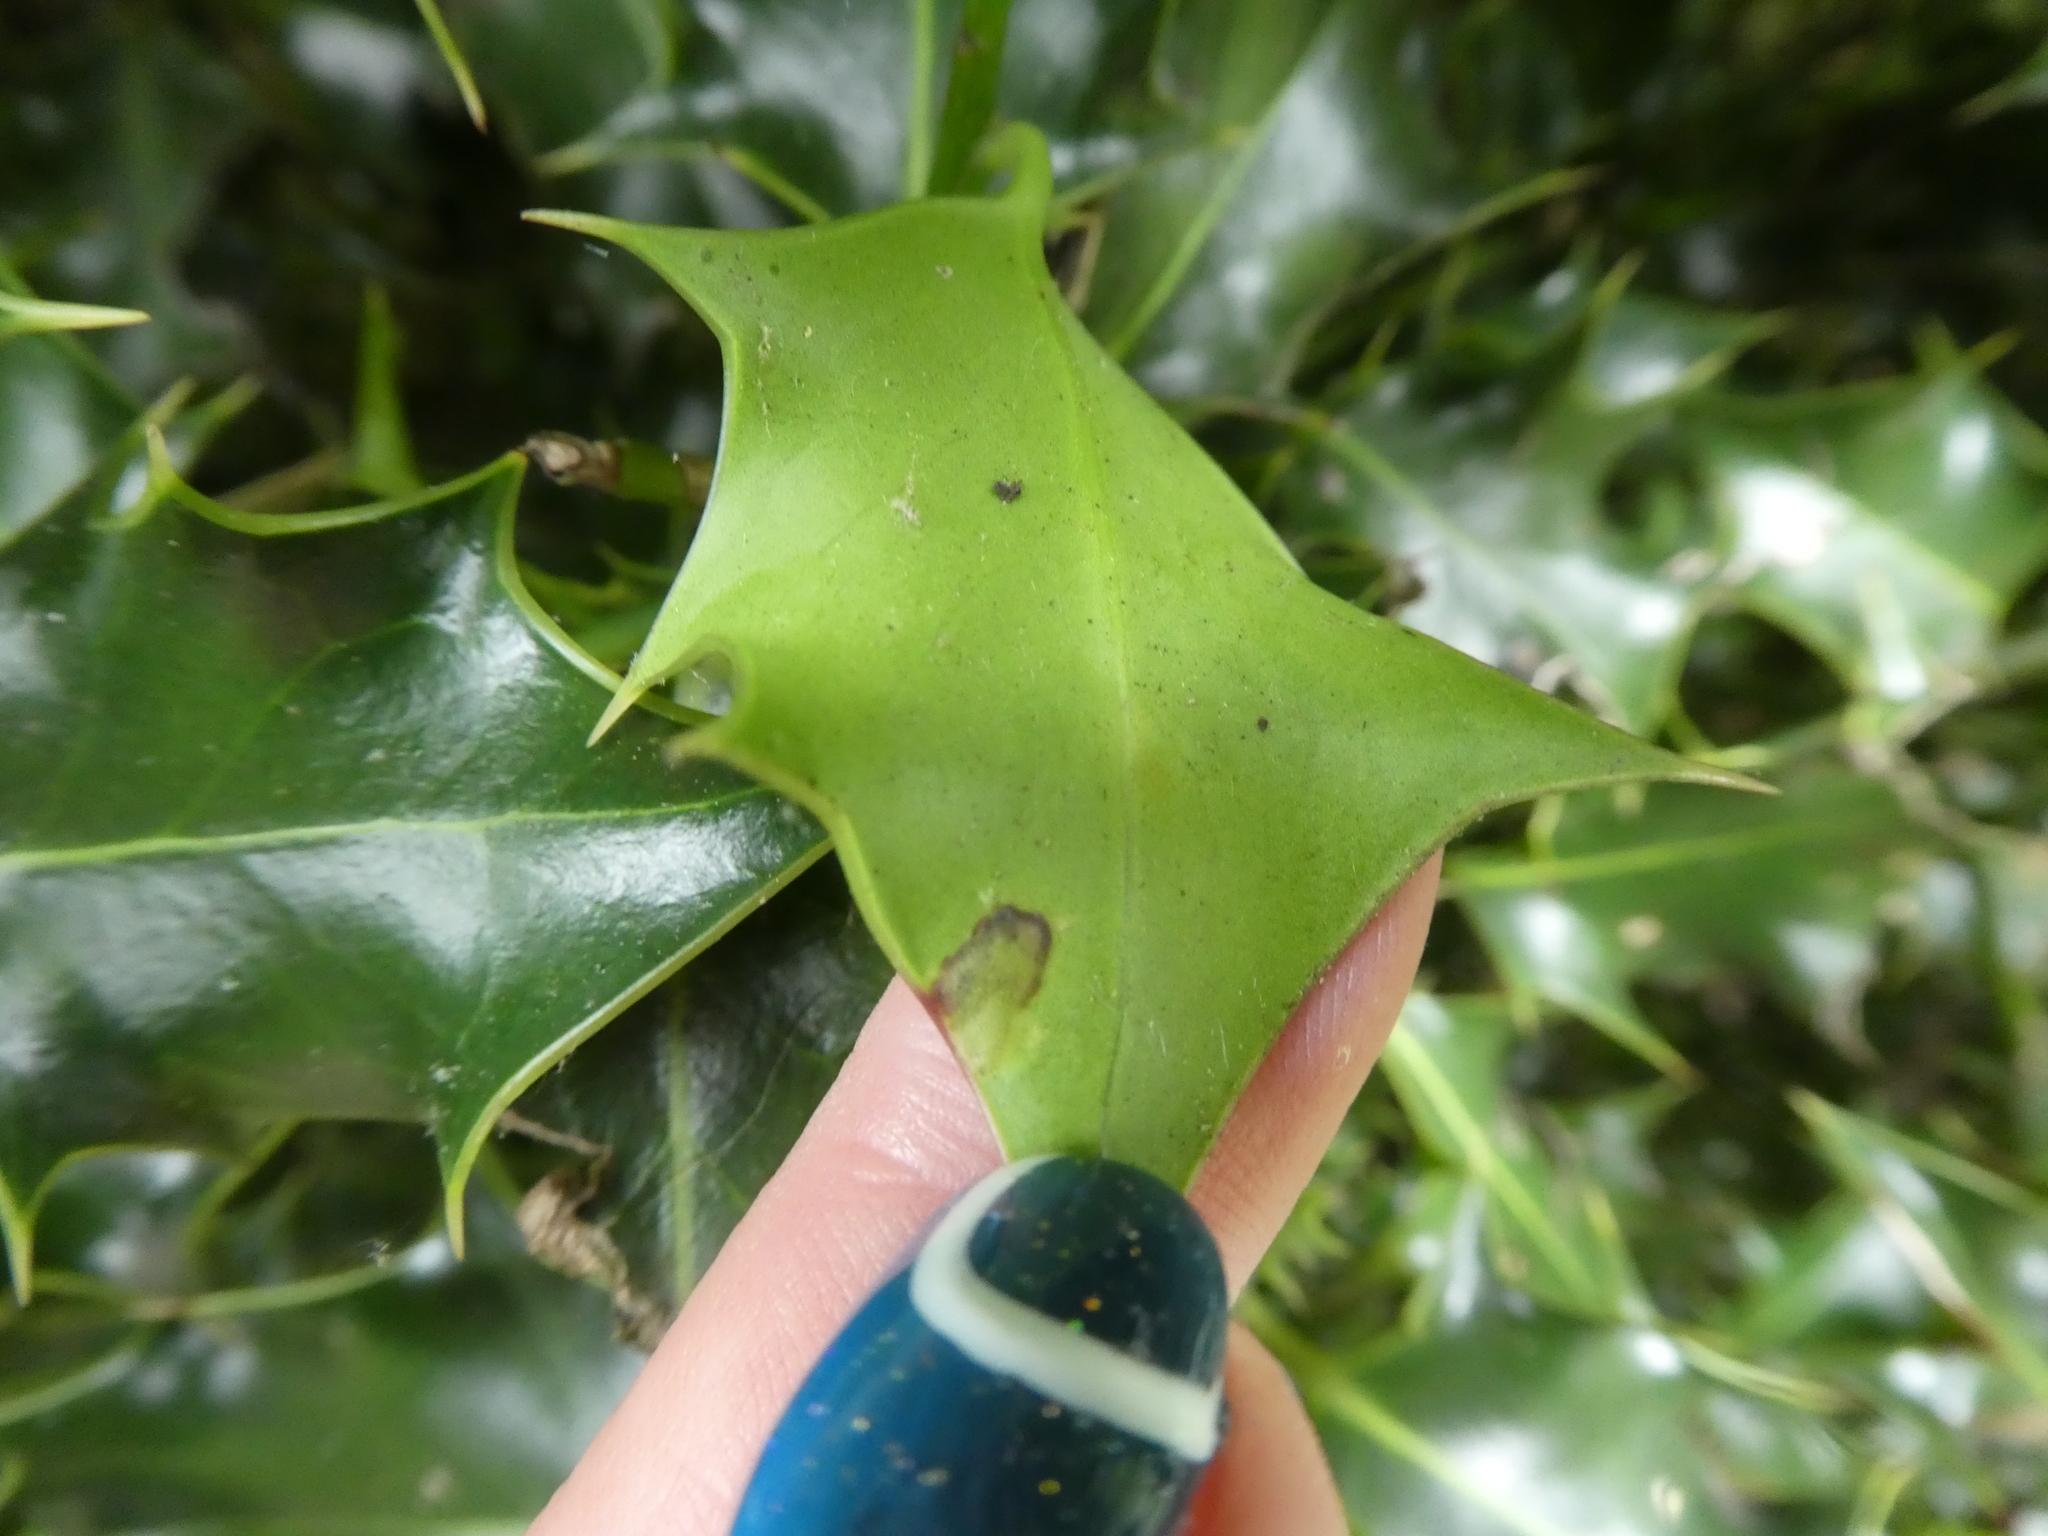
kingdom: Animalia
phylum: Arthropoda
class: Insecta
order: Diptera
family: Agromyzidae
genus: Phytomyza
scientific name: Phytomyza ilicis
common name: Holly leafminer
